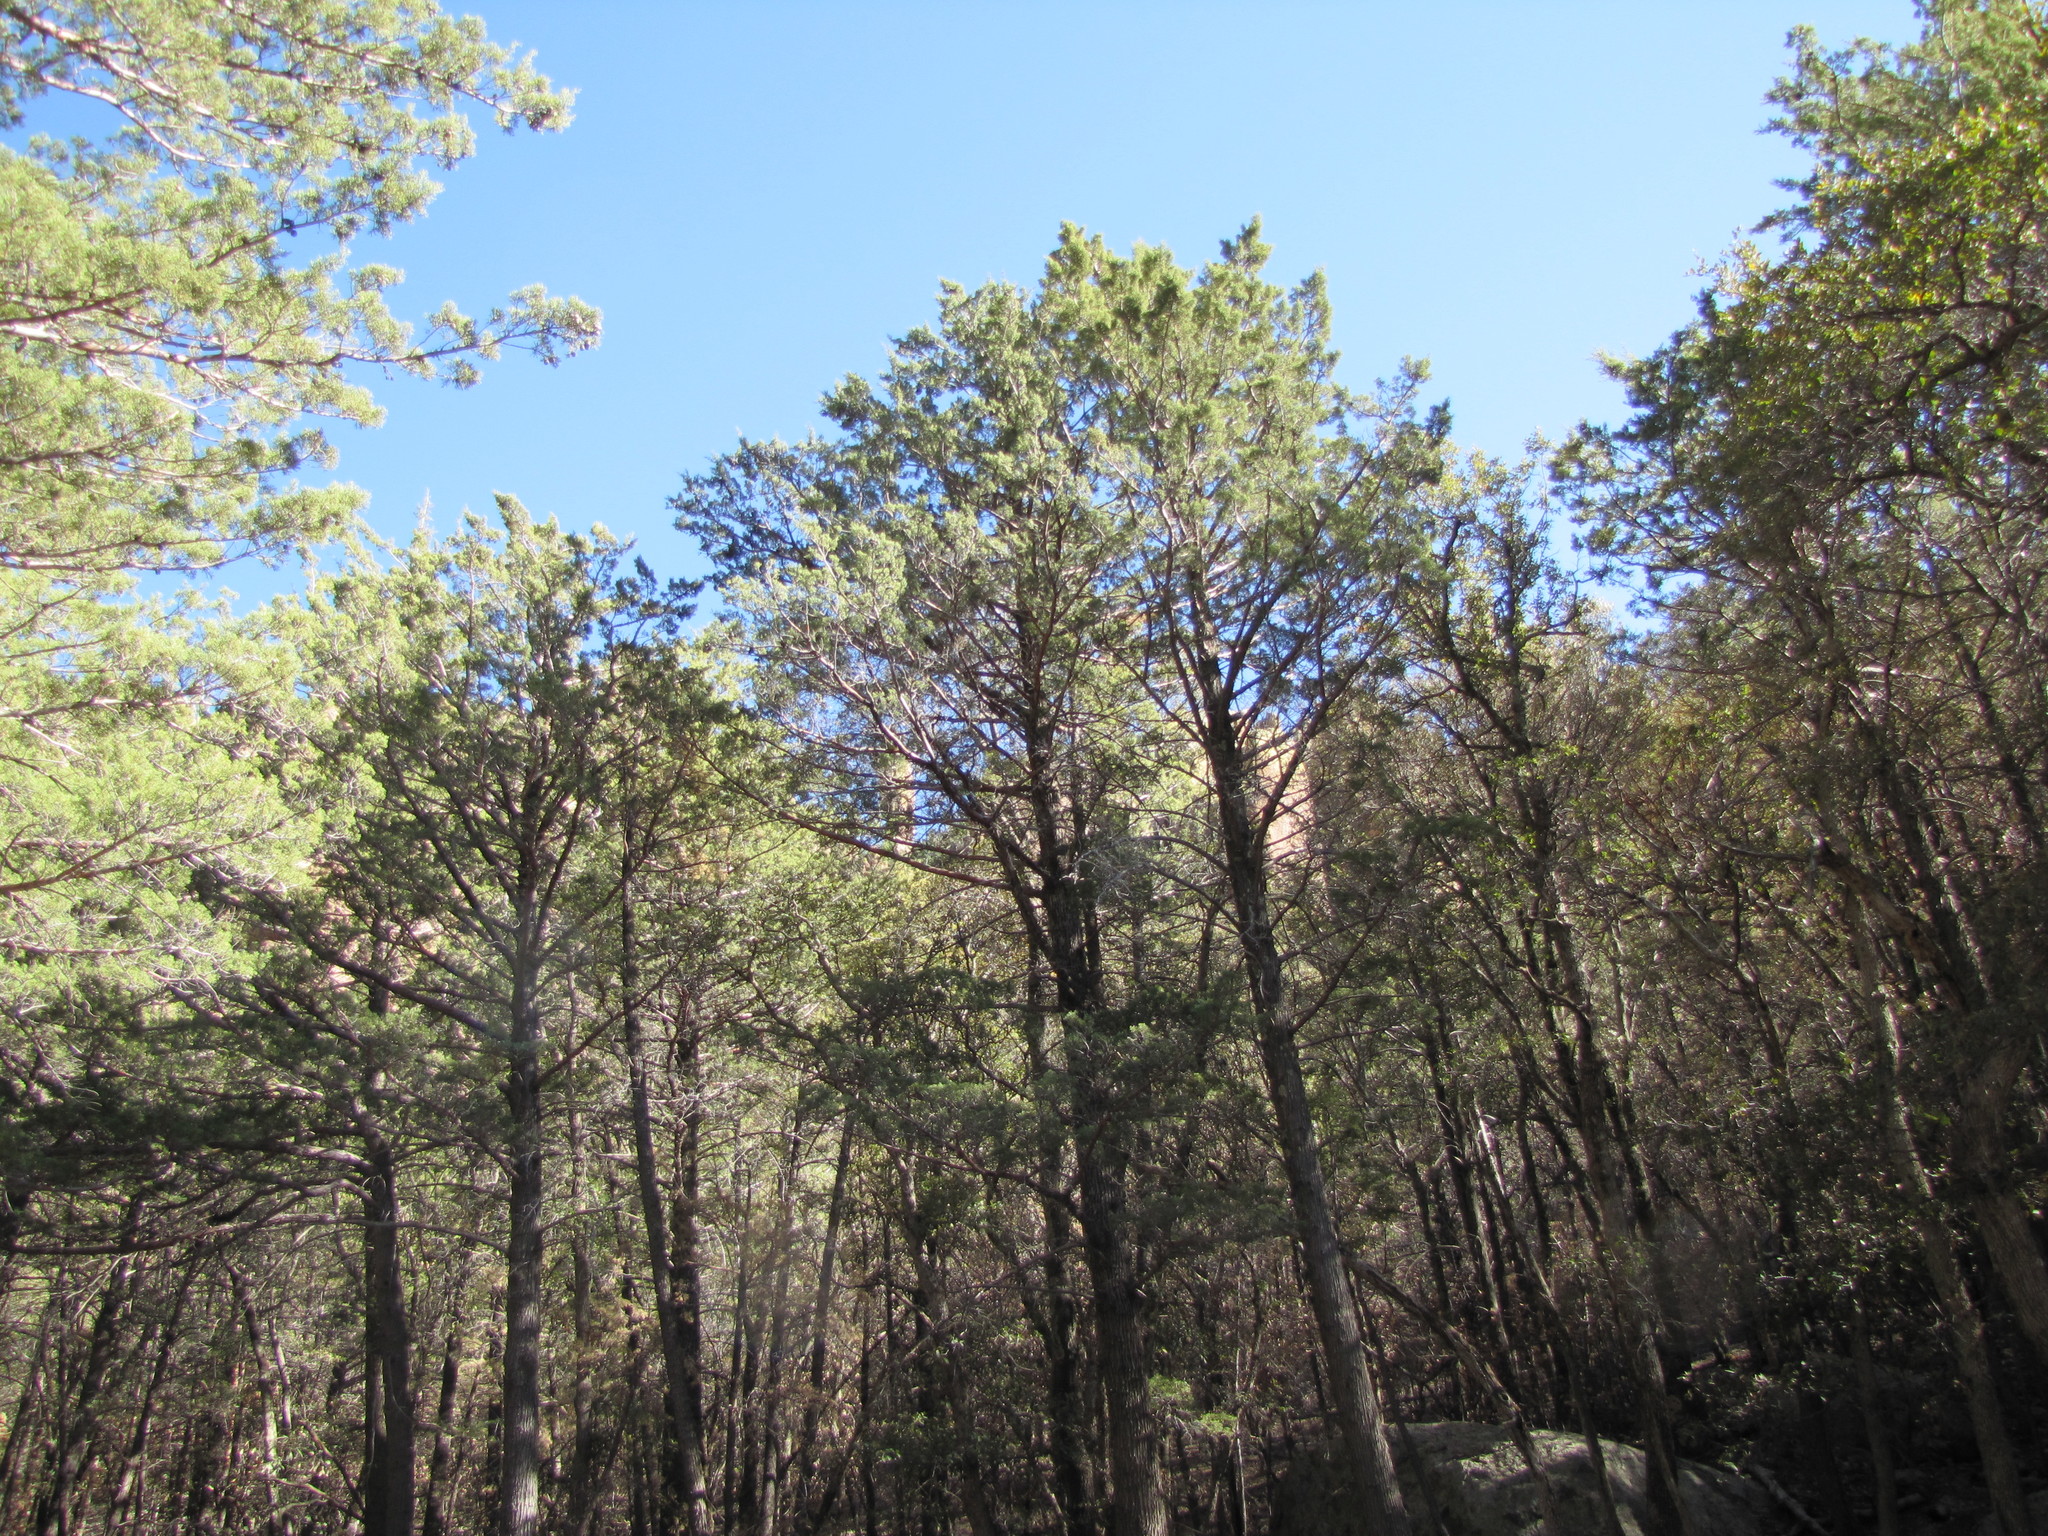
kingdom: Plantae
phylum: Tracheophyta
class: Pinopsida
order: Pinales
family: Cupressaceae
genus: Cupressus
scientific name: Cupressus arizonica
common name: Arizona cypress
